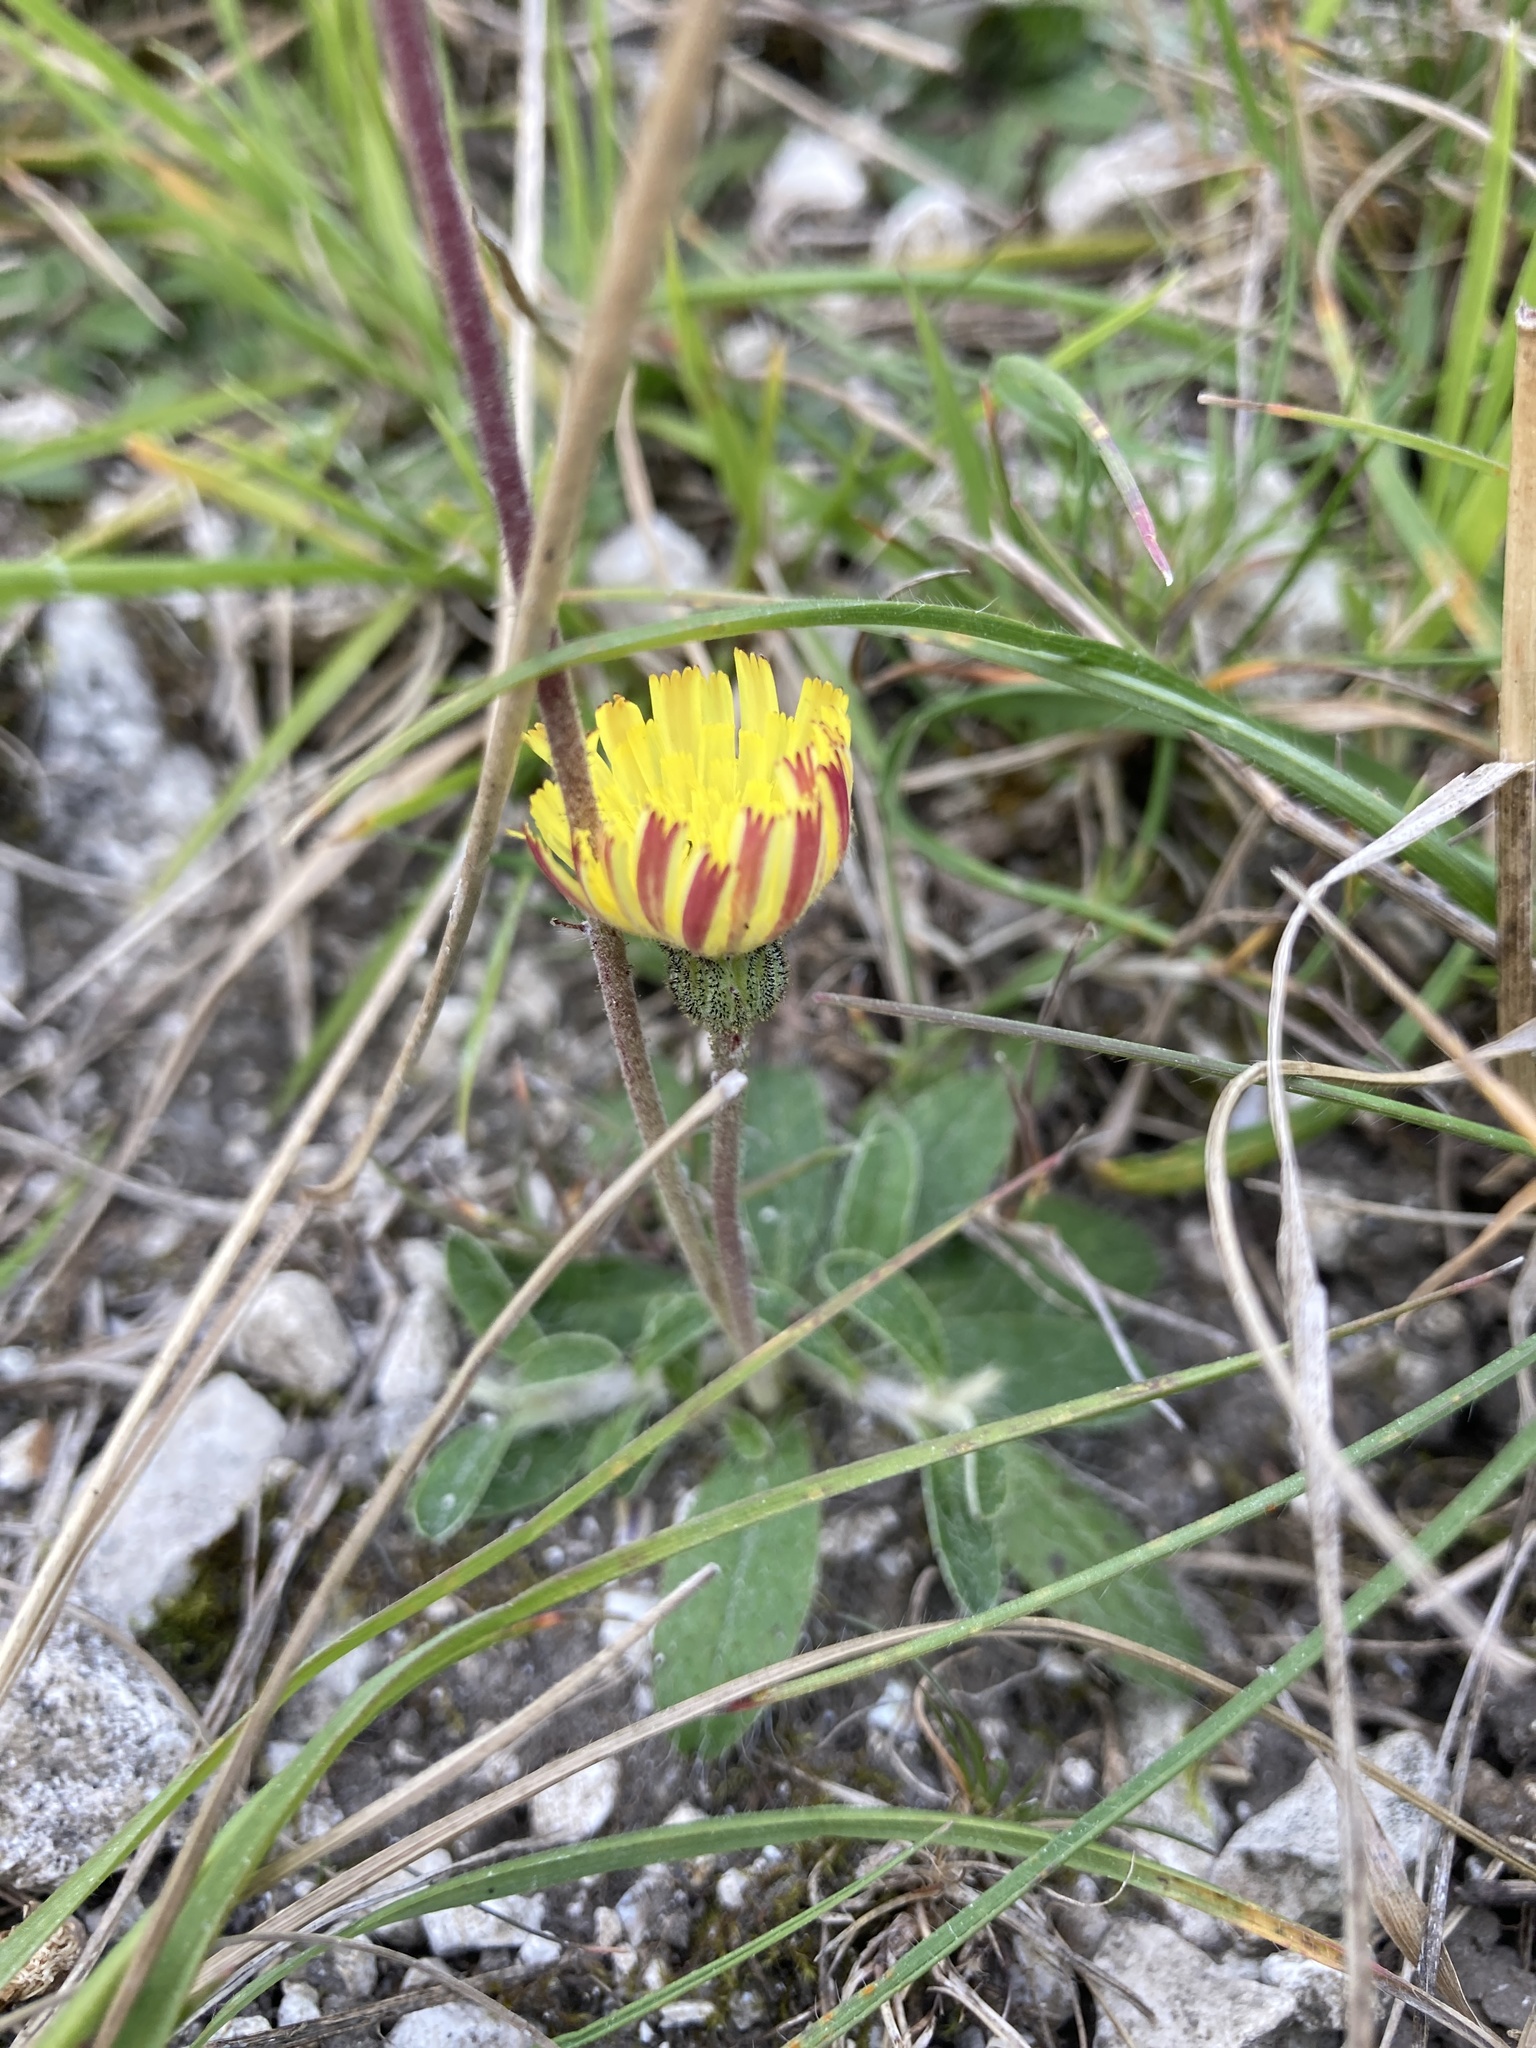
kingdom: Plantae
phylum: Tracheophyta
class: Magnoliopsida
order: Asterales
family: Asteraceae
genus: Pilosella
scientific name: Pilosella officinarum
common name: Mouse-ear hawkweed
